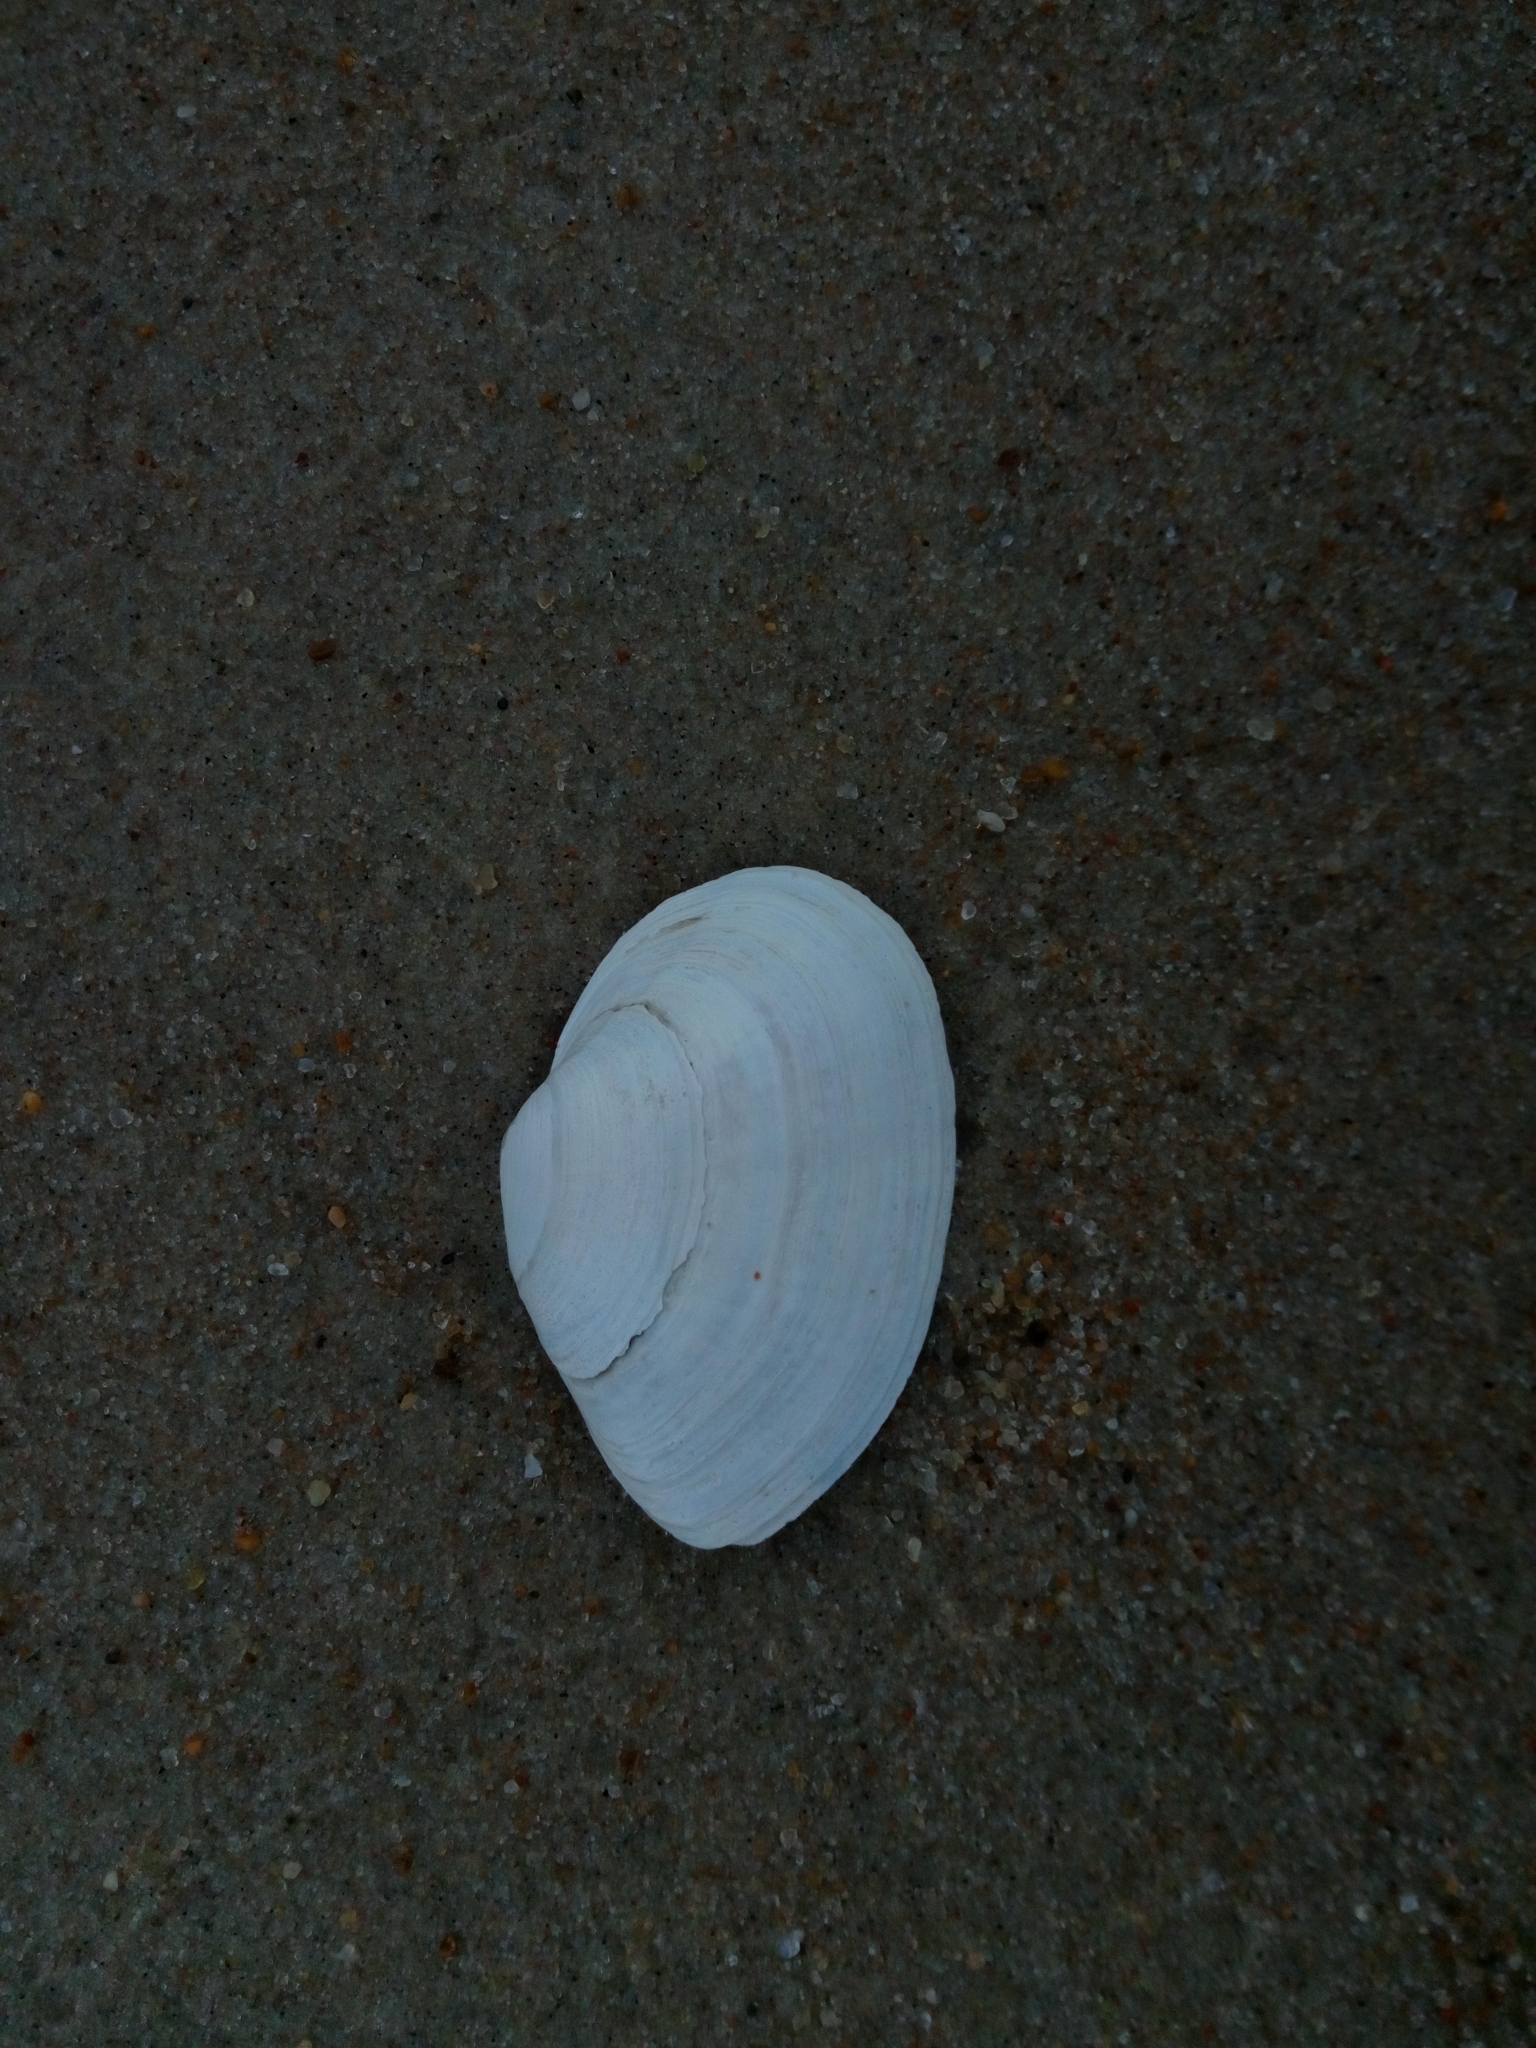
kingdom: Animalia
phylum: Mollusca
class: Bivalvia
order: Myida
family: Myidae
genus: Mya
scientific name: Mya arenaria
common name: Soft-shelled clam
